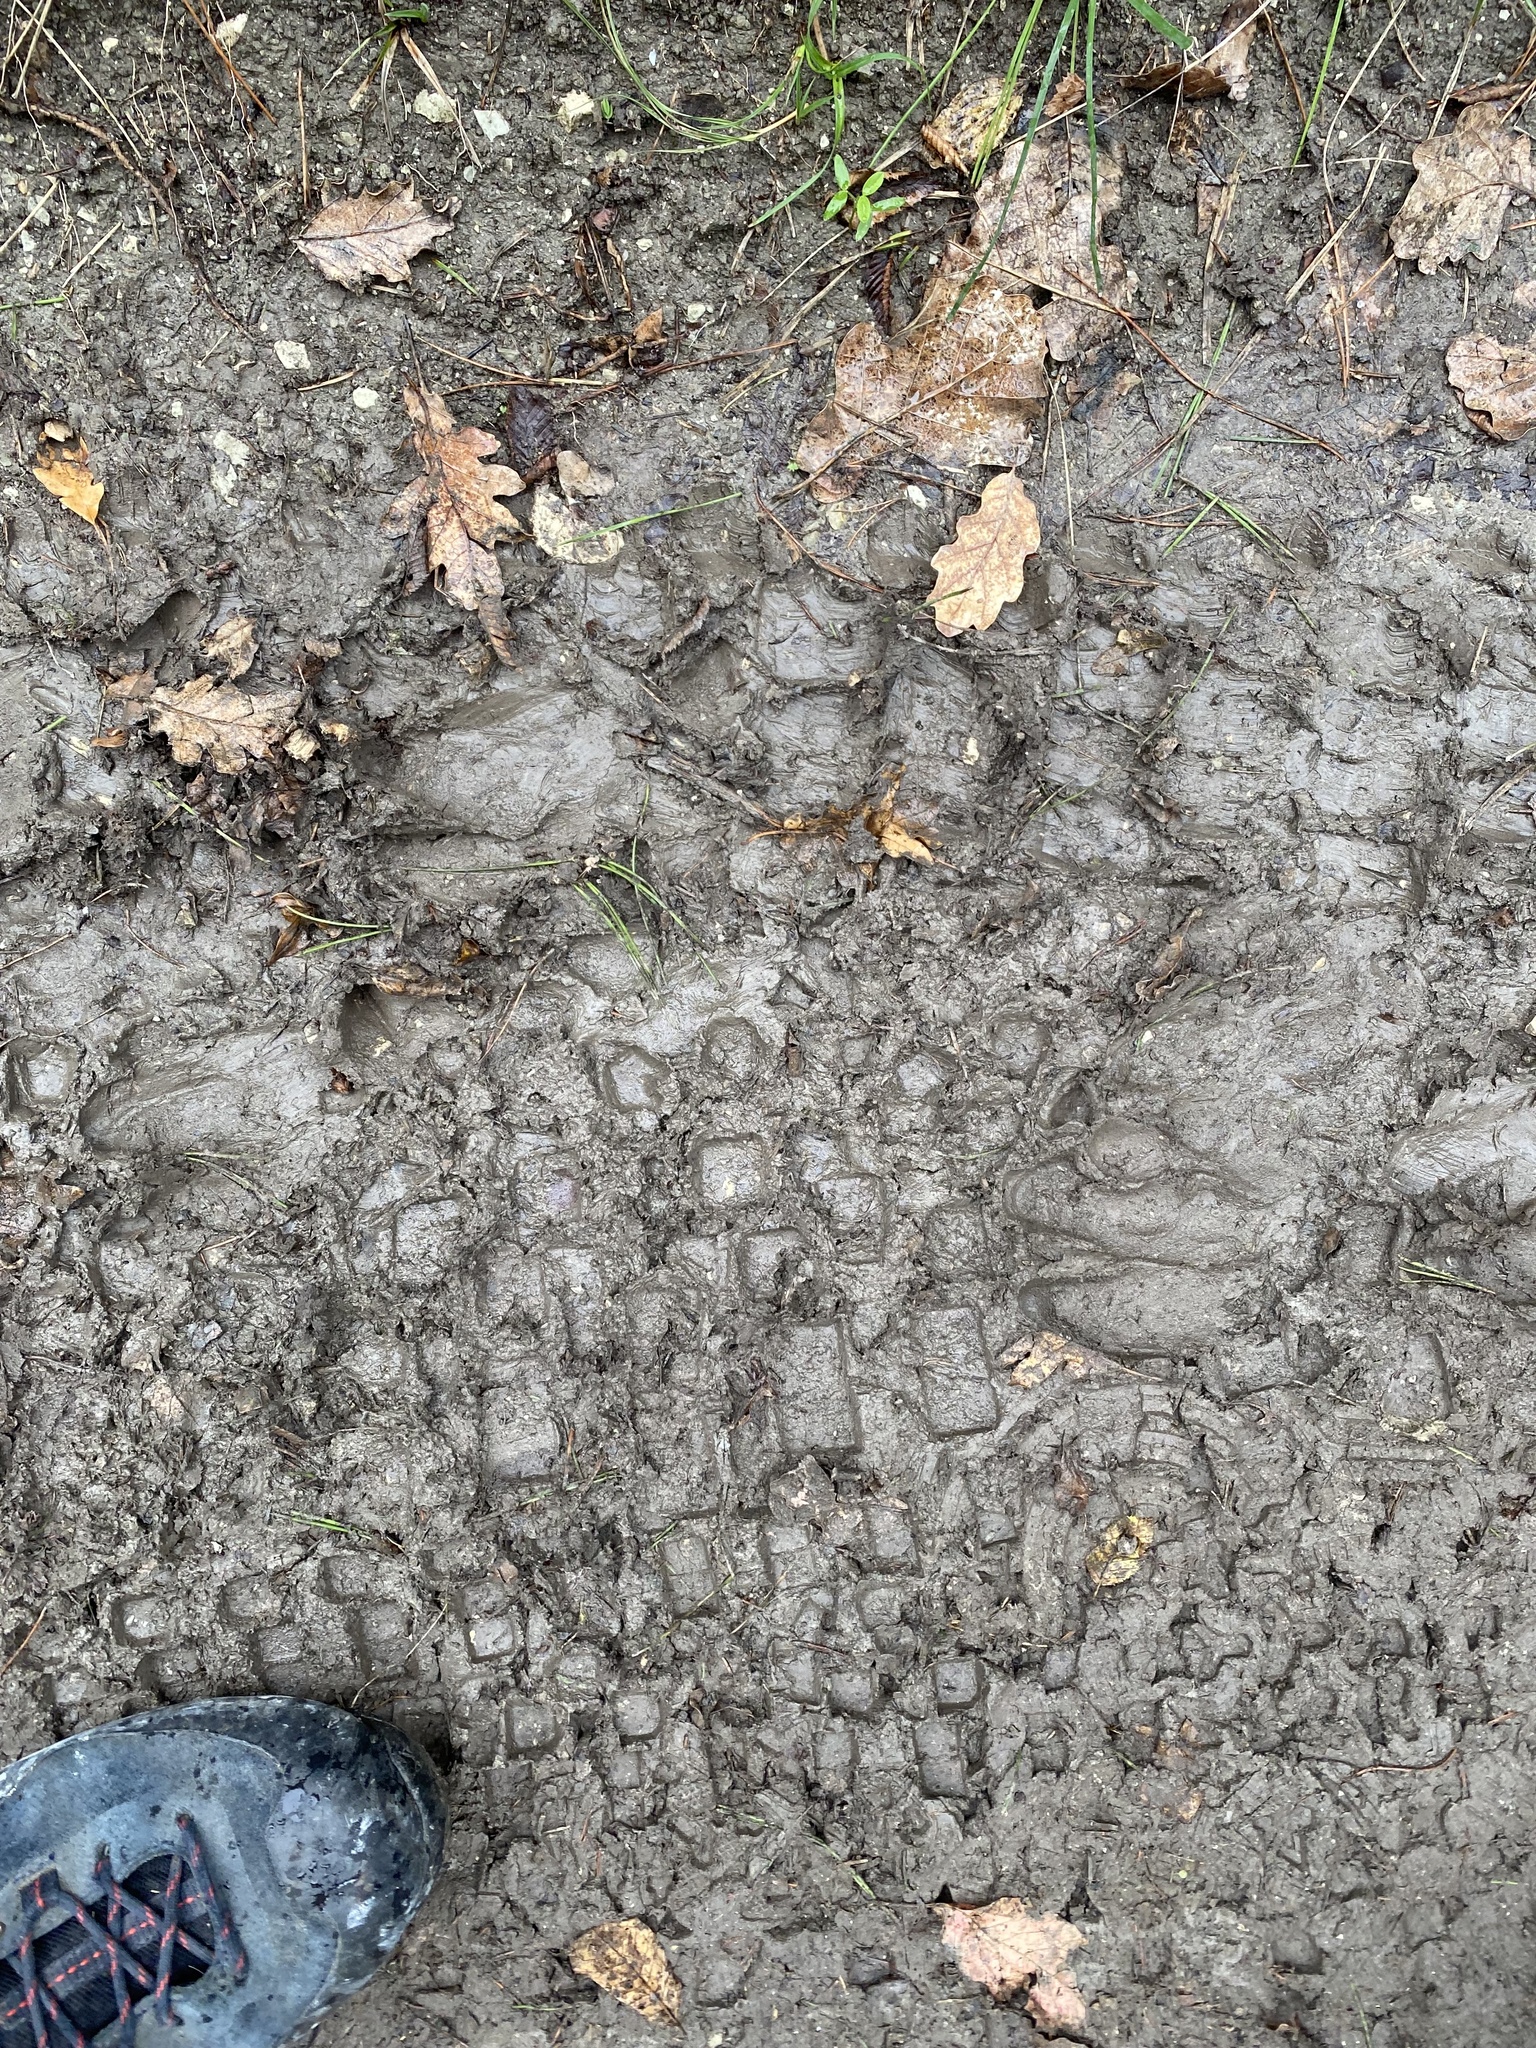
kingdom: Animalia
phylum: Chordata
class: Mammalia
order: Artiodactyla
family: Suidae
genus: Sus
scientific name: Sus scrofa
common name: Wild boar
